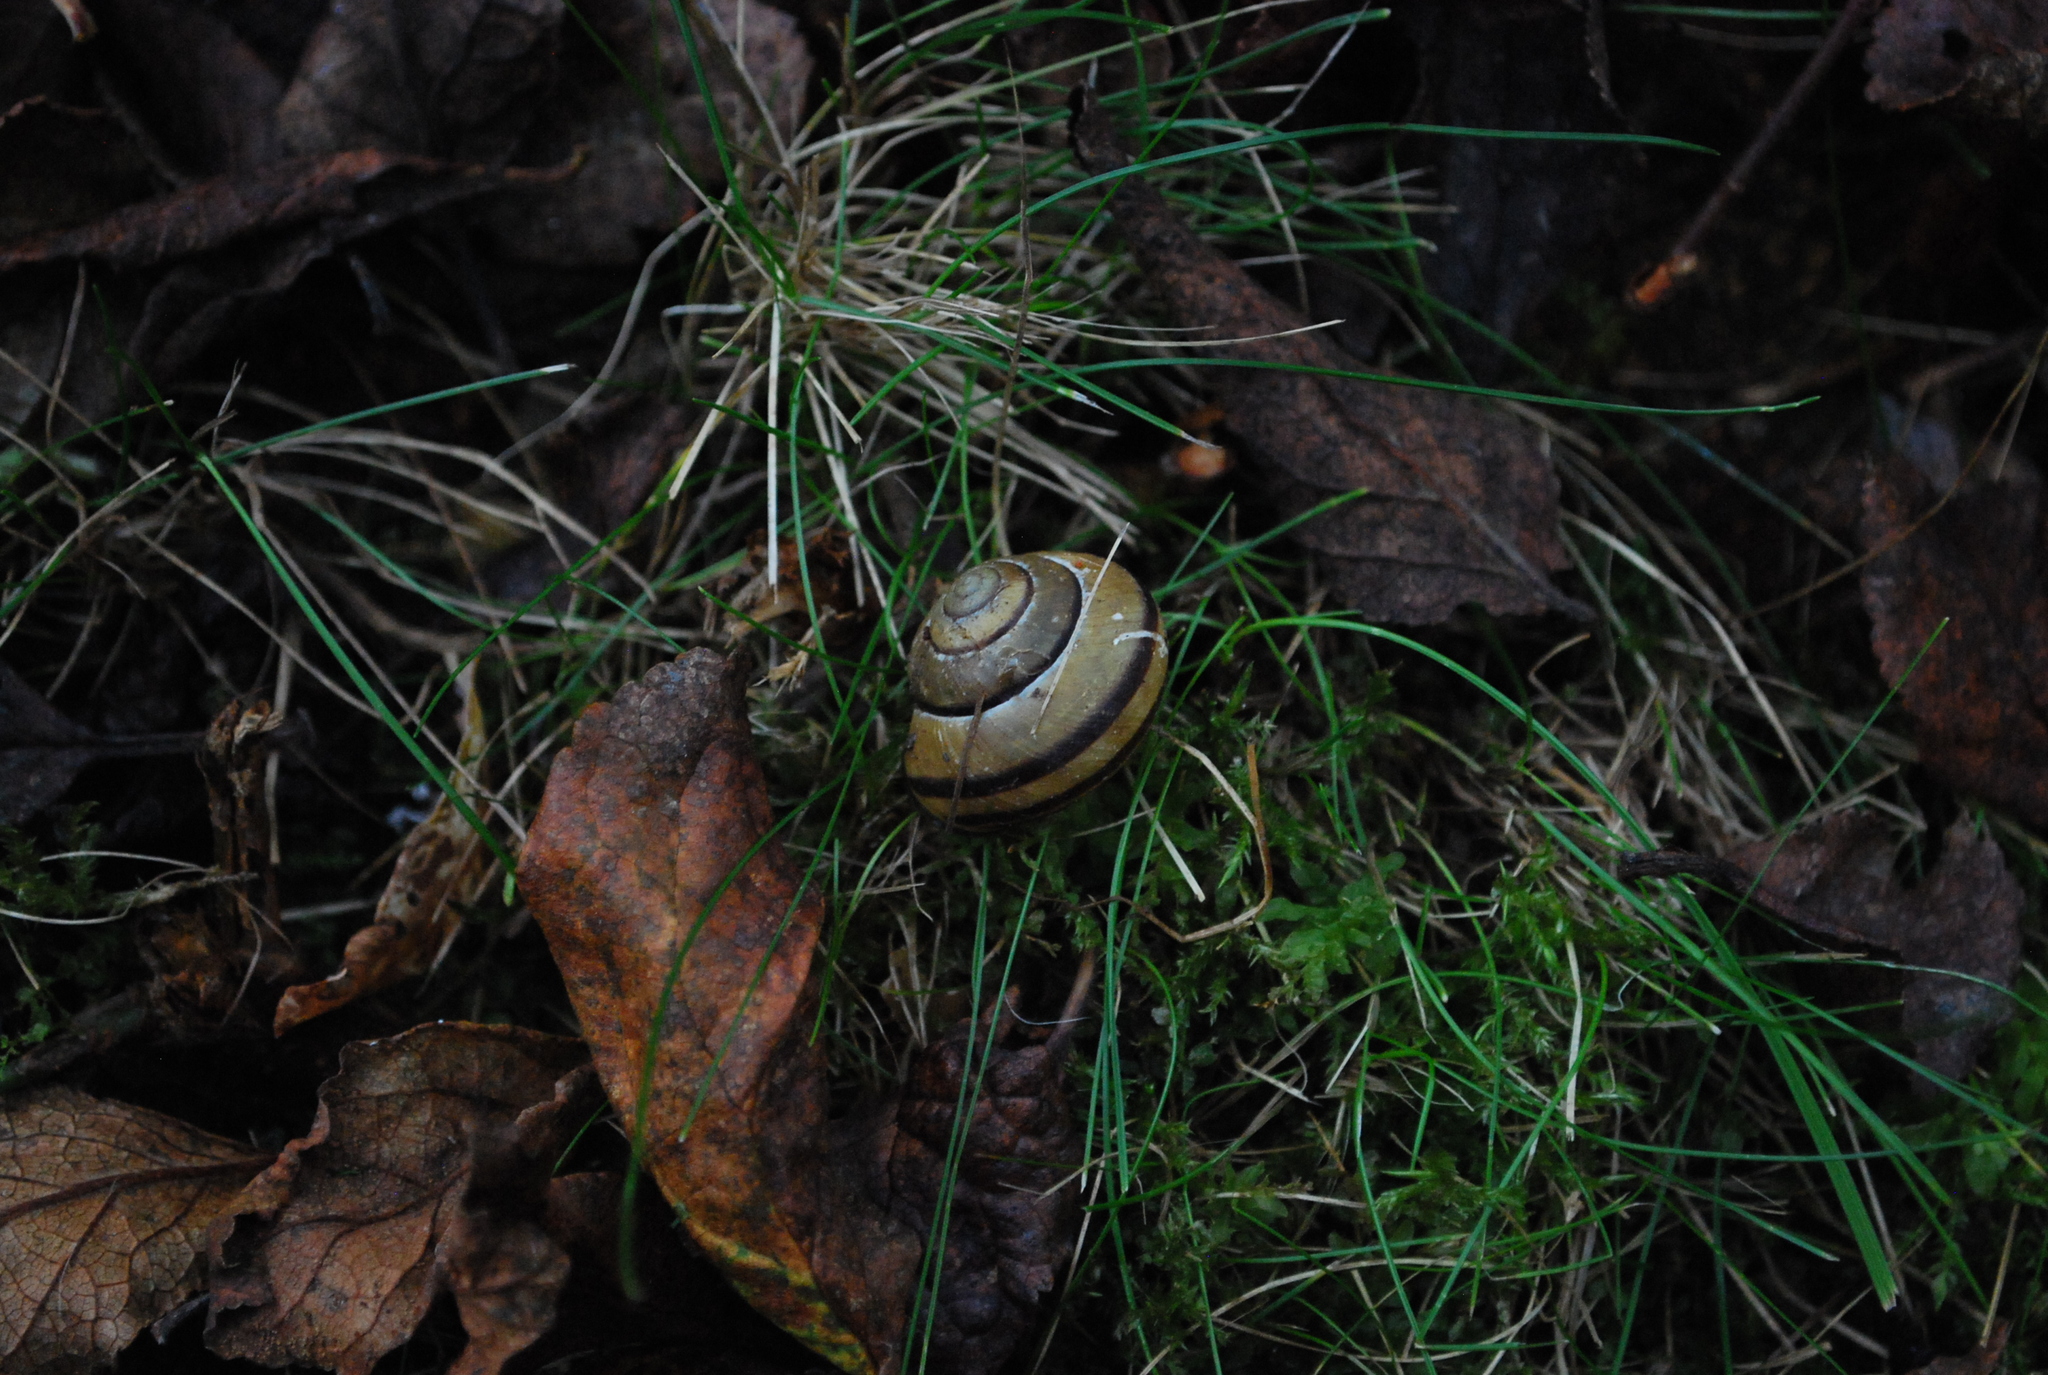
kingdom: Animalia
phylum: Mollusca
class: Gastropoda
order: Stylommatophora
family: Helicidae
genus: Cepaea
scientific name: Cepaea nemoralis
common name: Grovesnail
